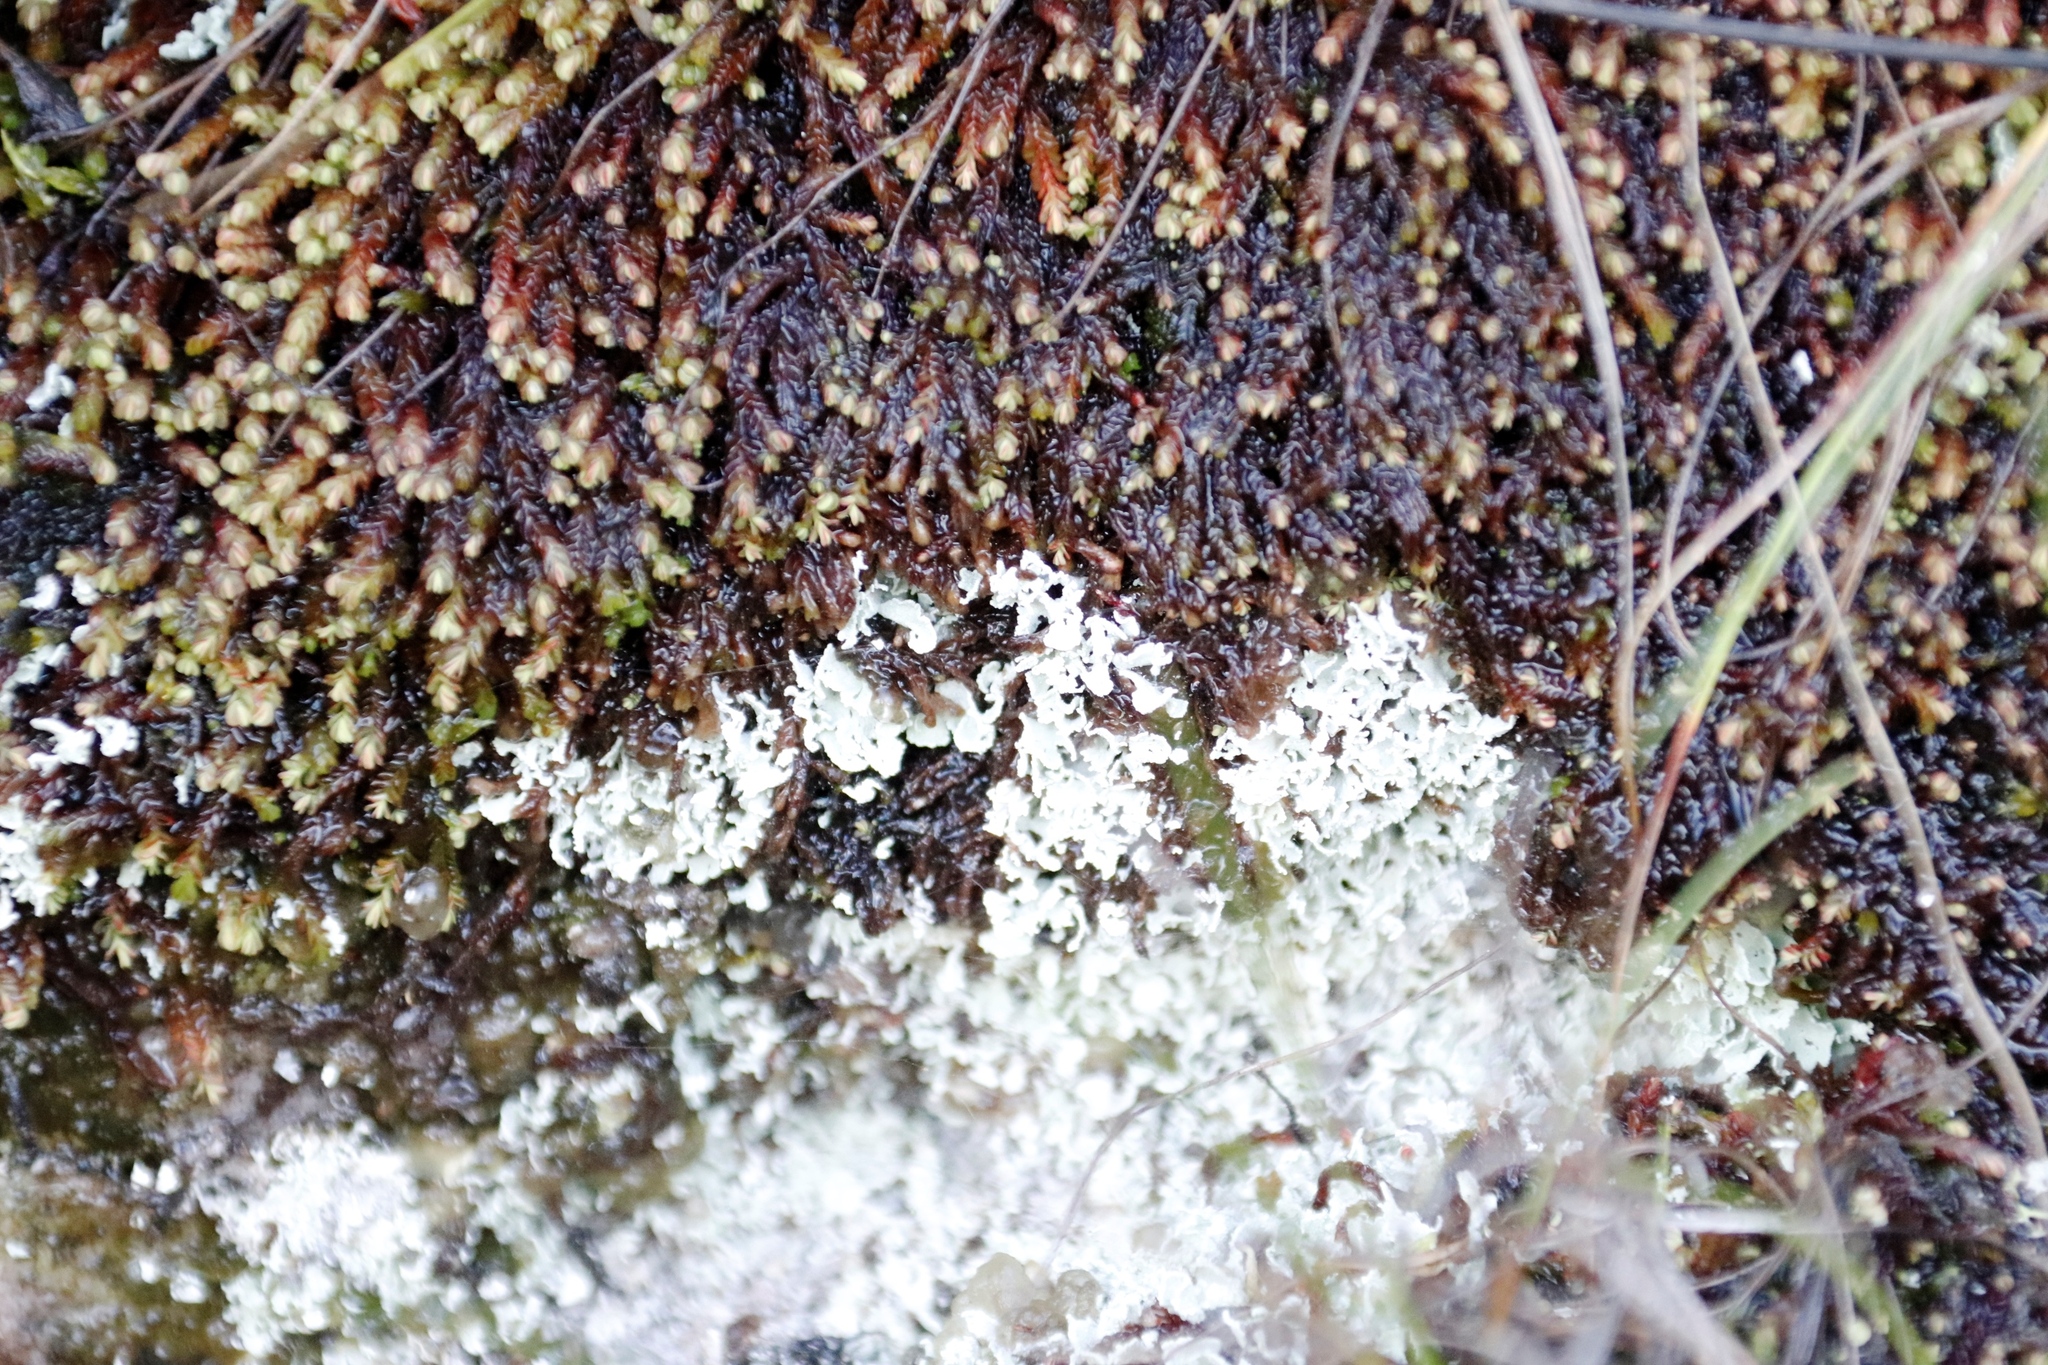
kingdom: Plantae
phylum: Marchantiophyta
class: Jungermanniopsida
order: Jungermanniales
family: Adelanthaceae
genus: Syzygiella
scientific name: Syzygiella colorata
